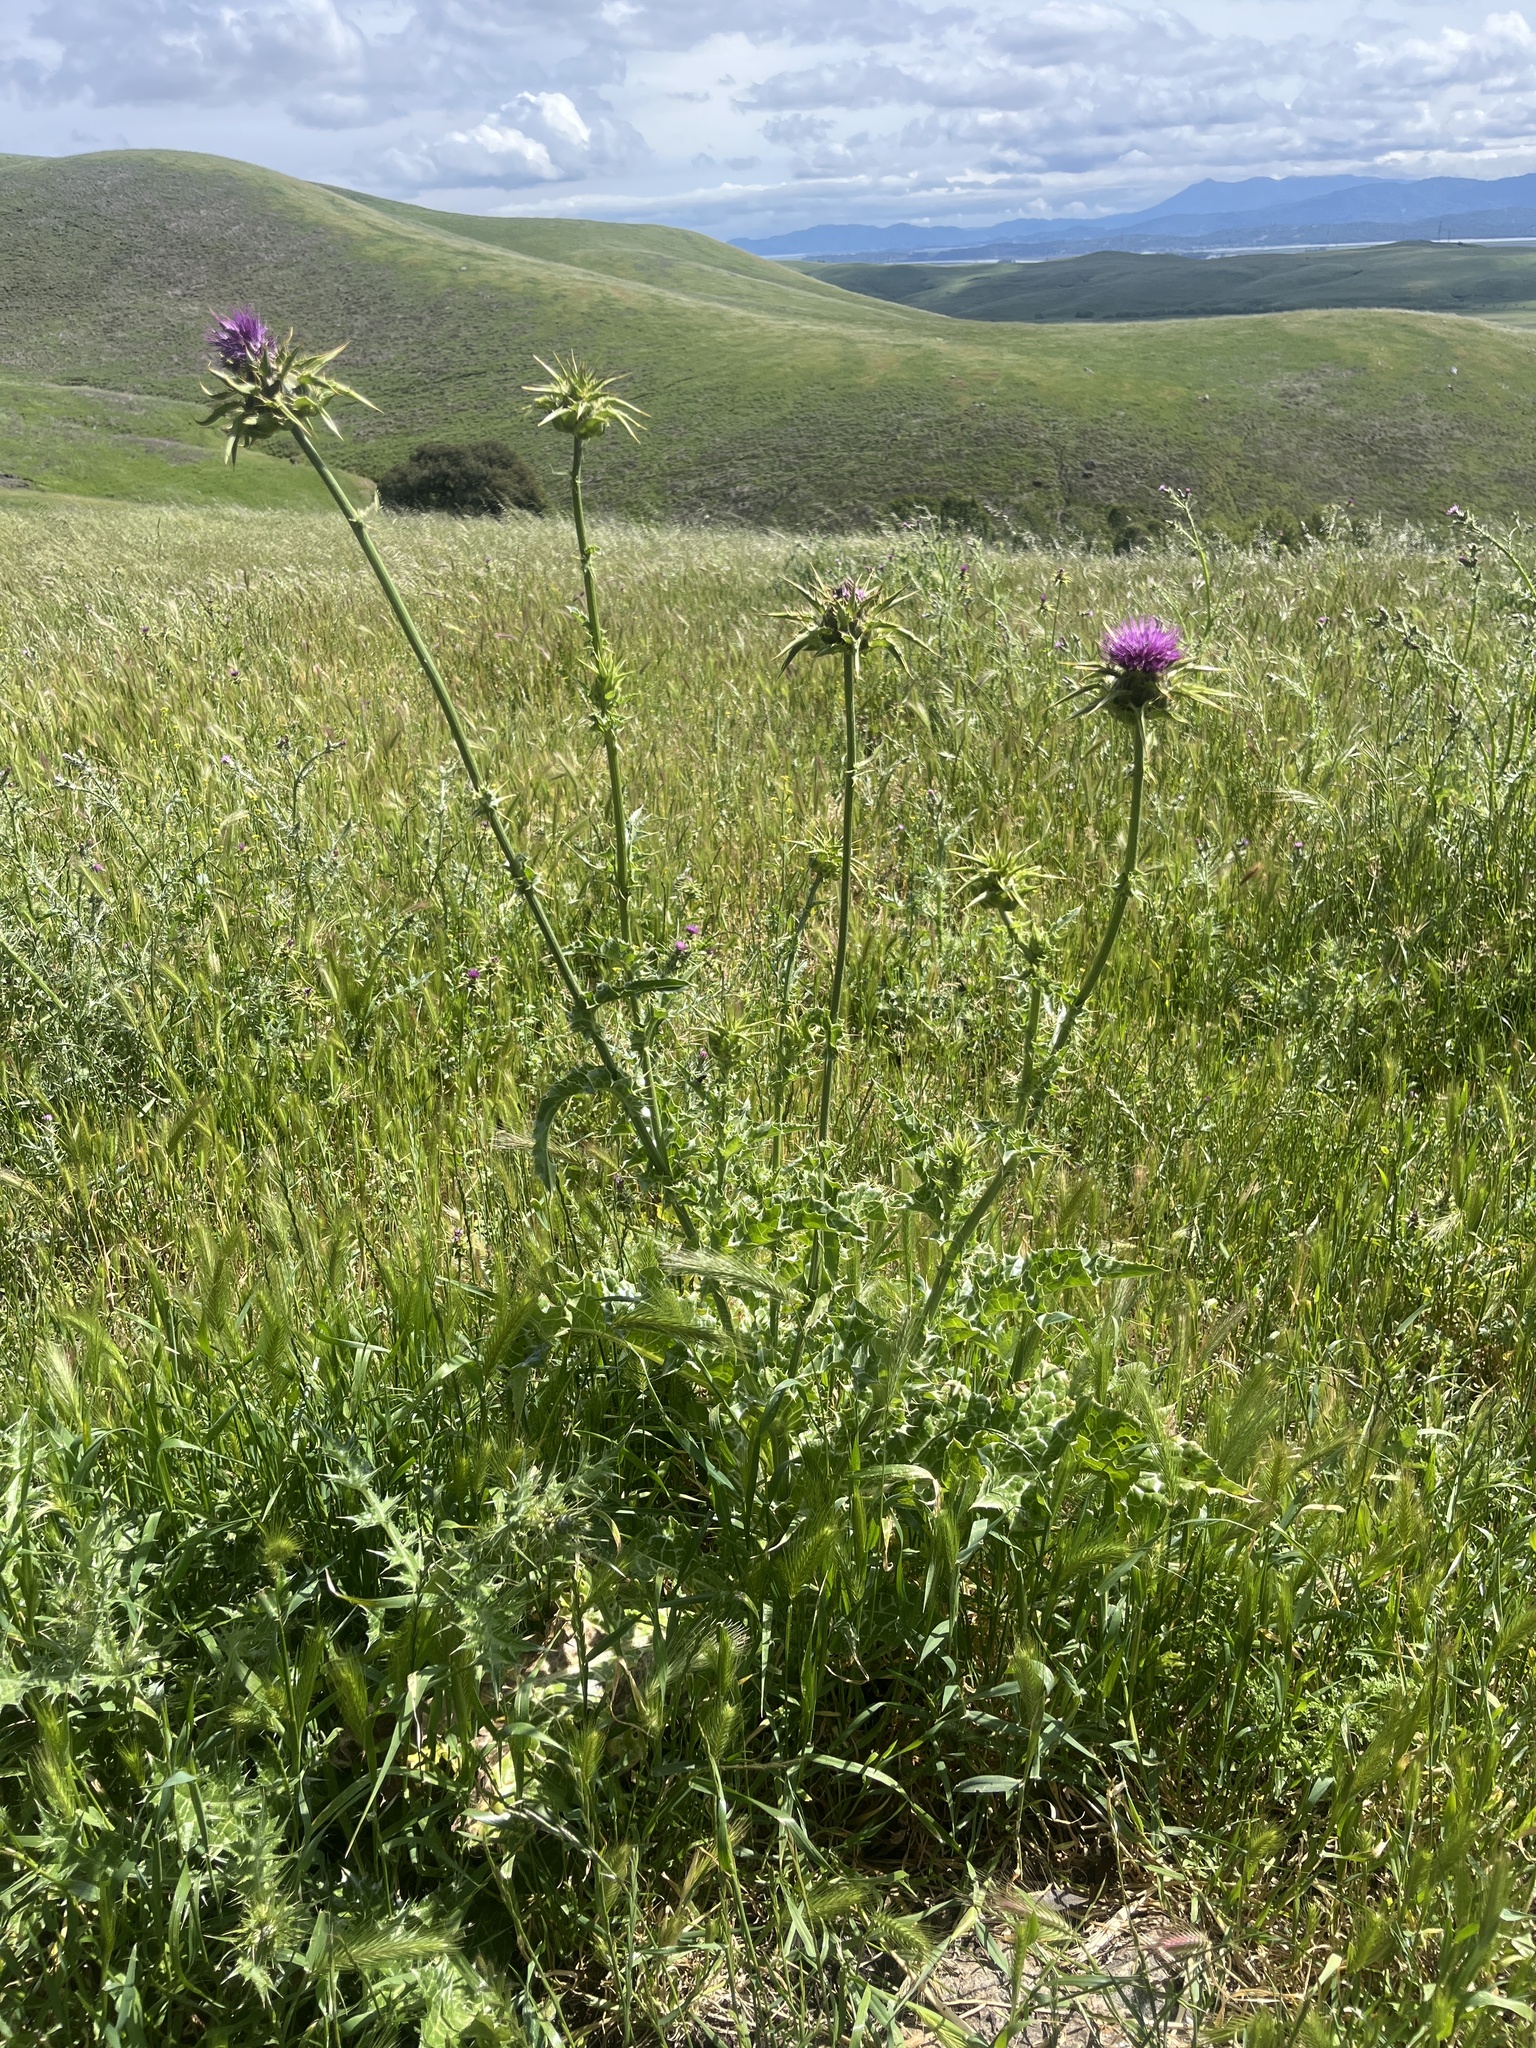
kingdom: Plantae
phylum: Tracheophyta
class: Magnoliopsida
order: Asterales
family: Asteraceae
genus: Silybum
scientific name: Silybum marianum
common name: Milk thistle
